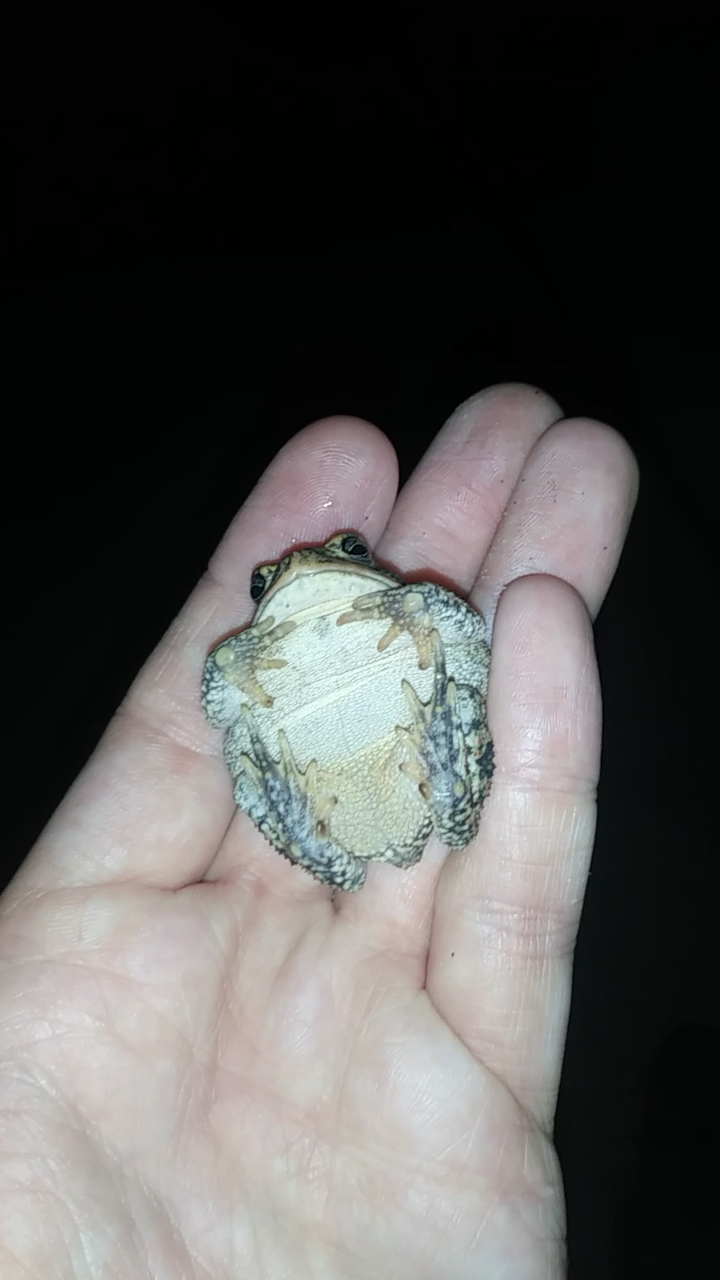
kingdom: Animalia
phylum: Chordata
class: Amphibia
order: Anura
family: Bufonidae
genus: Anaxyrus
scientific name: Anaxyrus terrestris
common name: Southern toad
